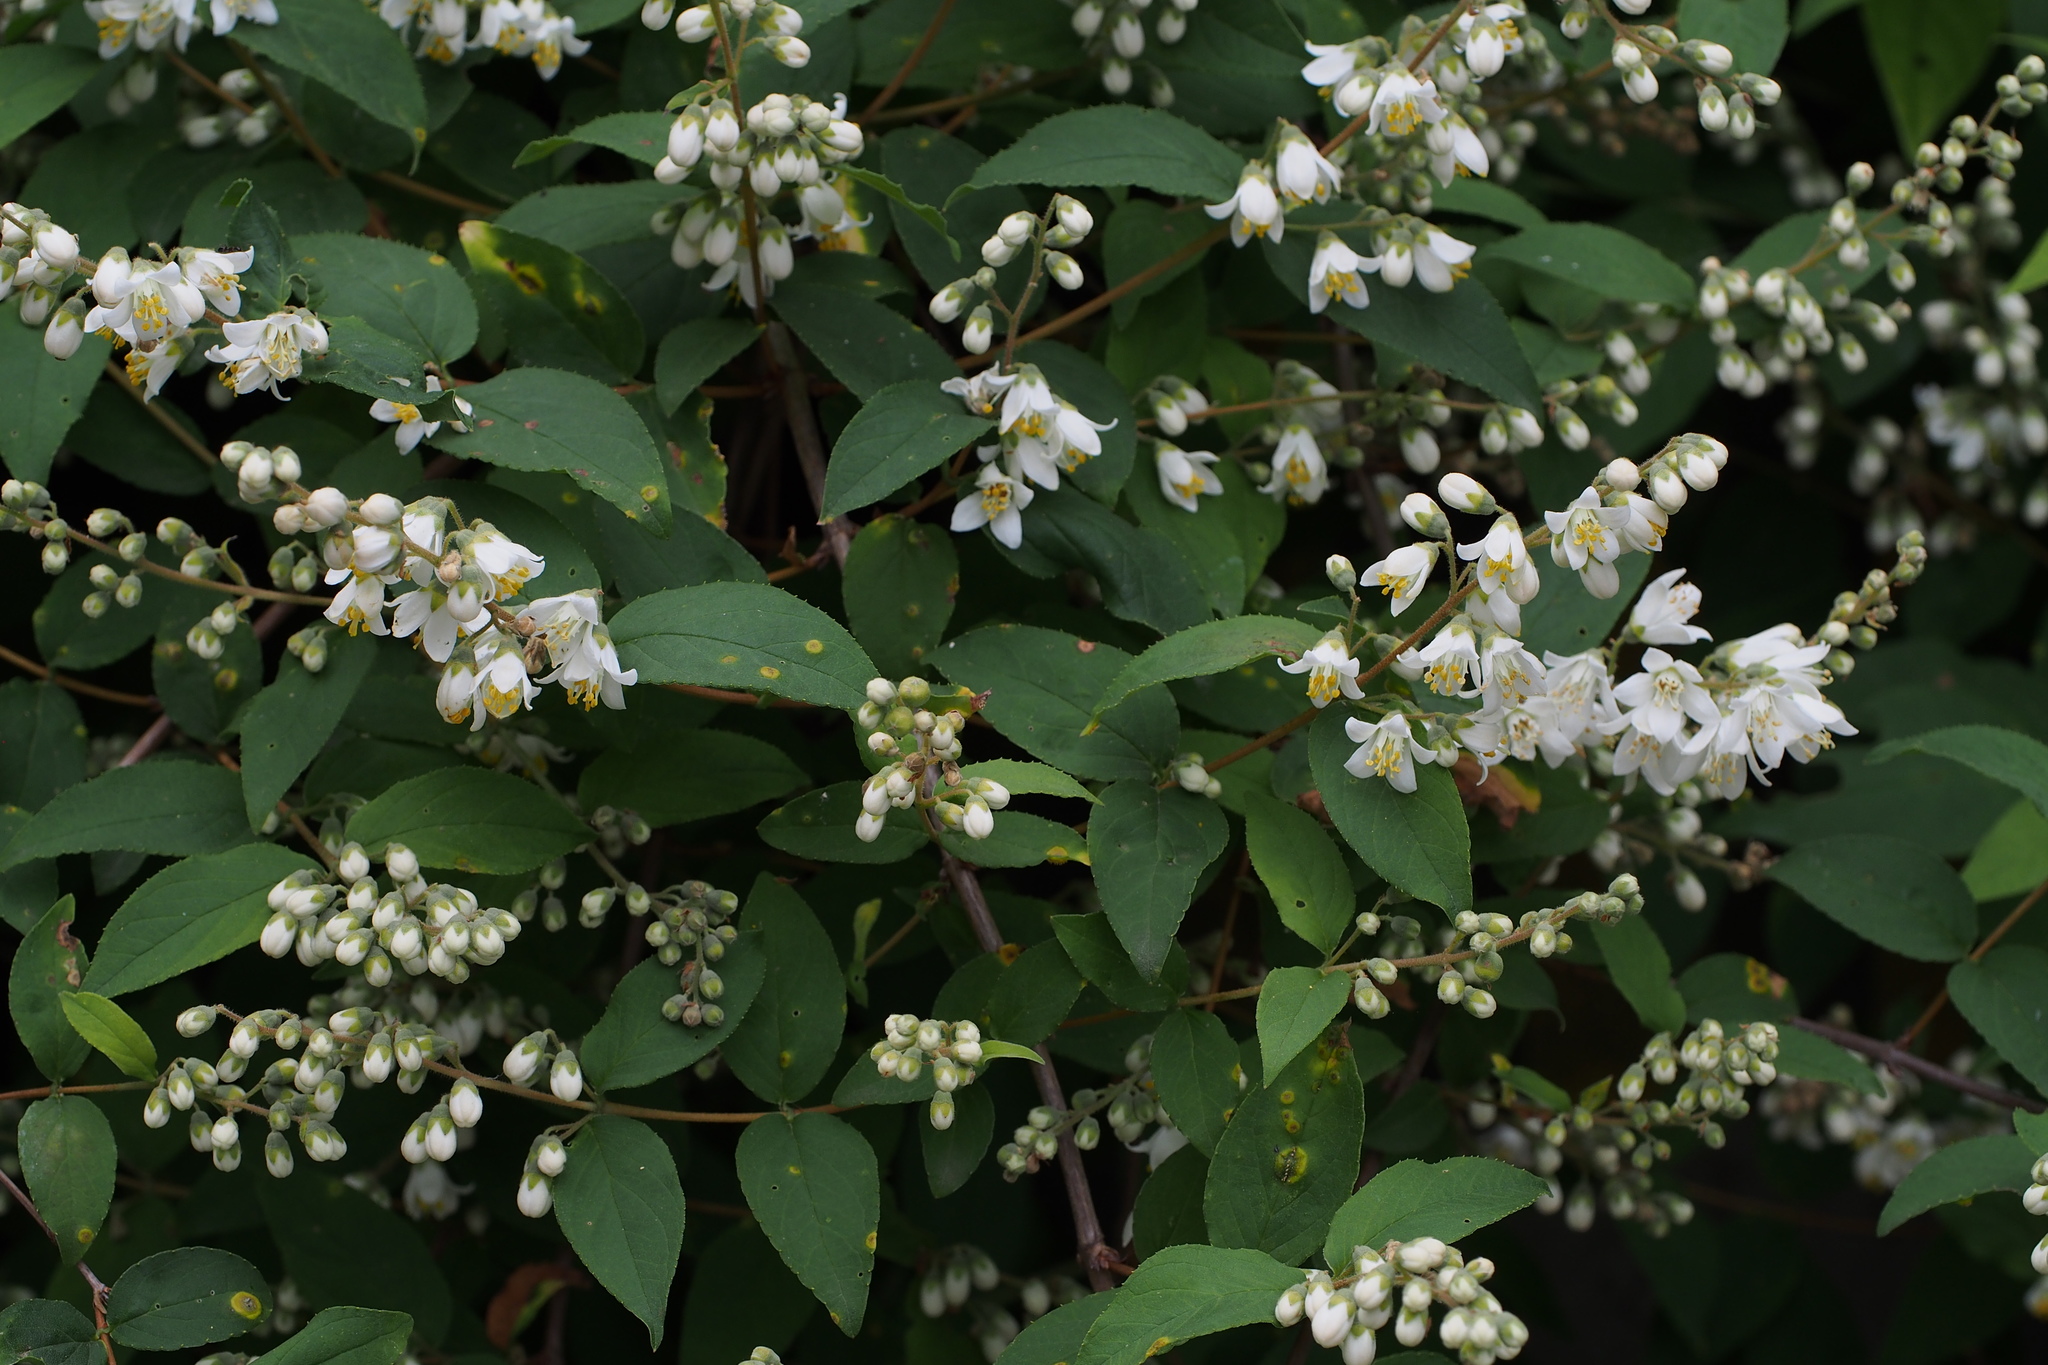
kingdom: Plantae
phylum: Tracheophyta
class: Magnoliopsida
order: Cornales
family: Hydrangeaceae
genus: Deutzia
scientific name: Deutzia crenata
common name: Deutzia
